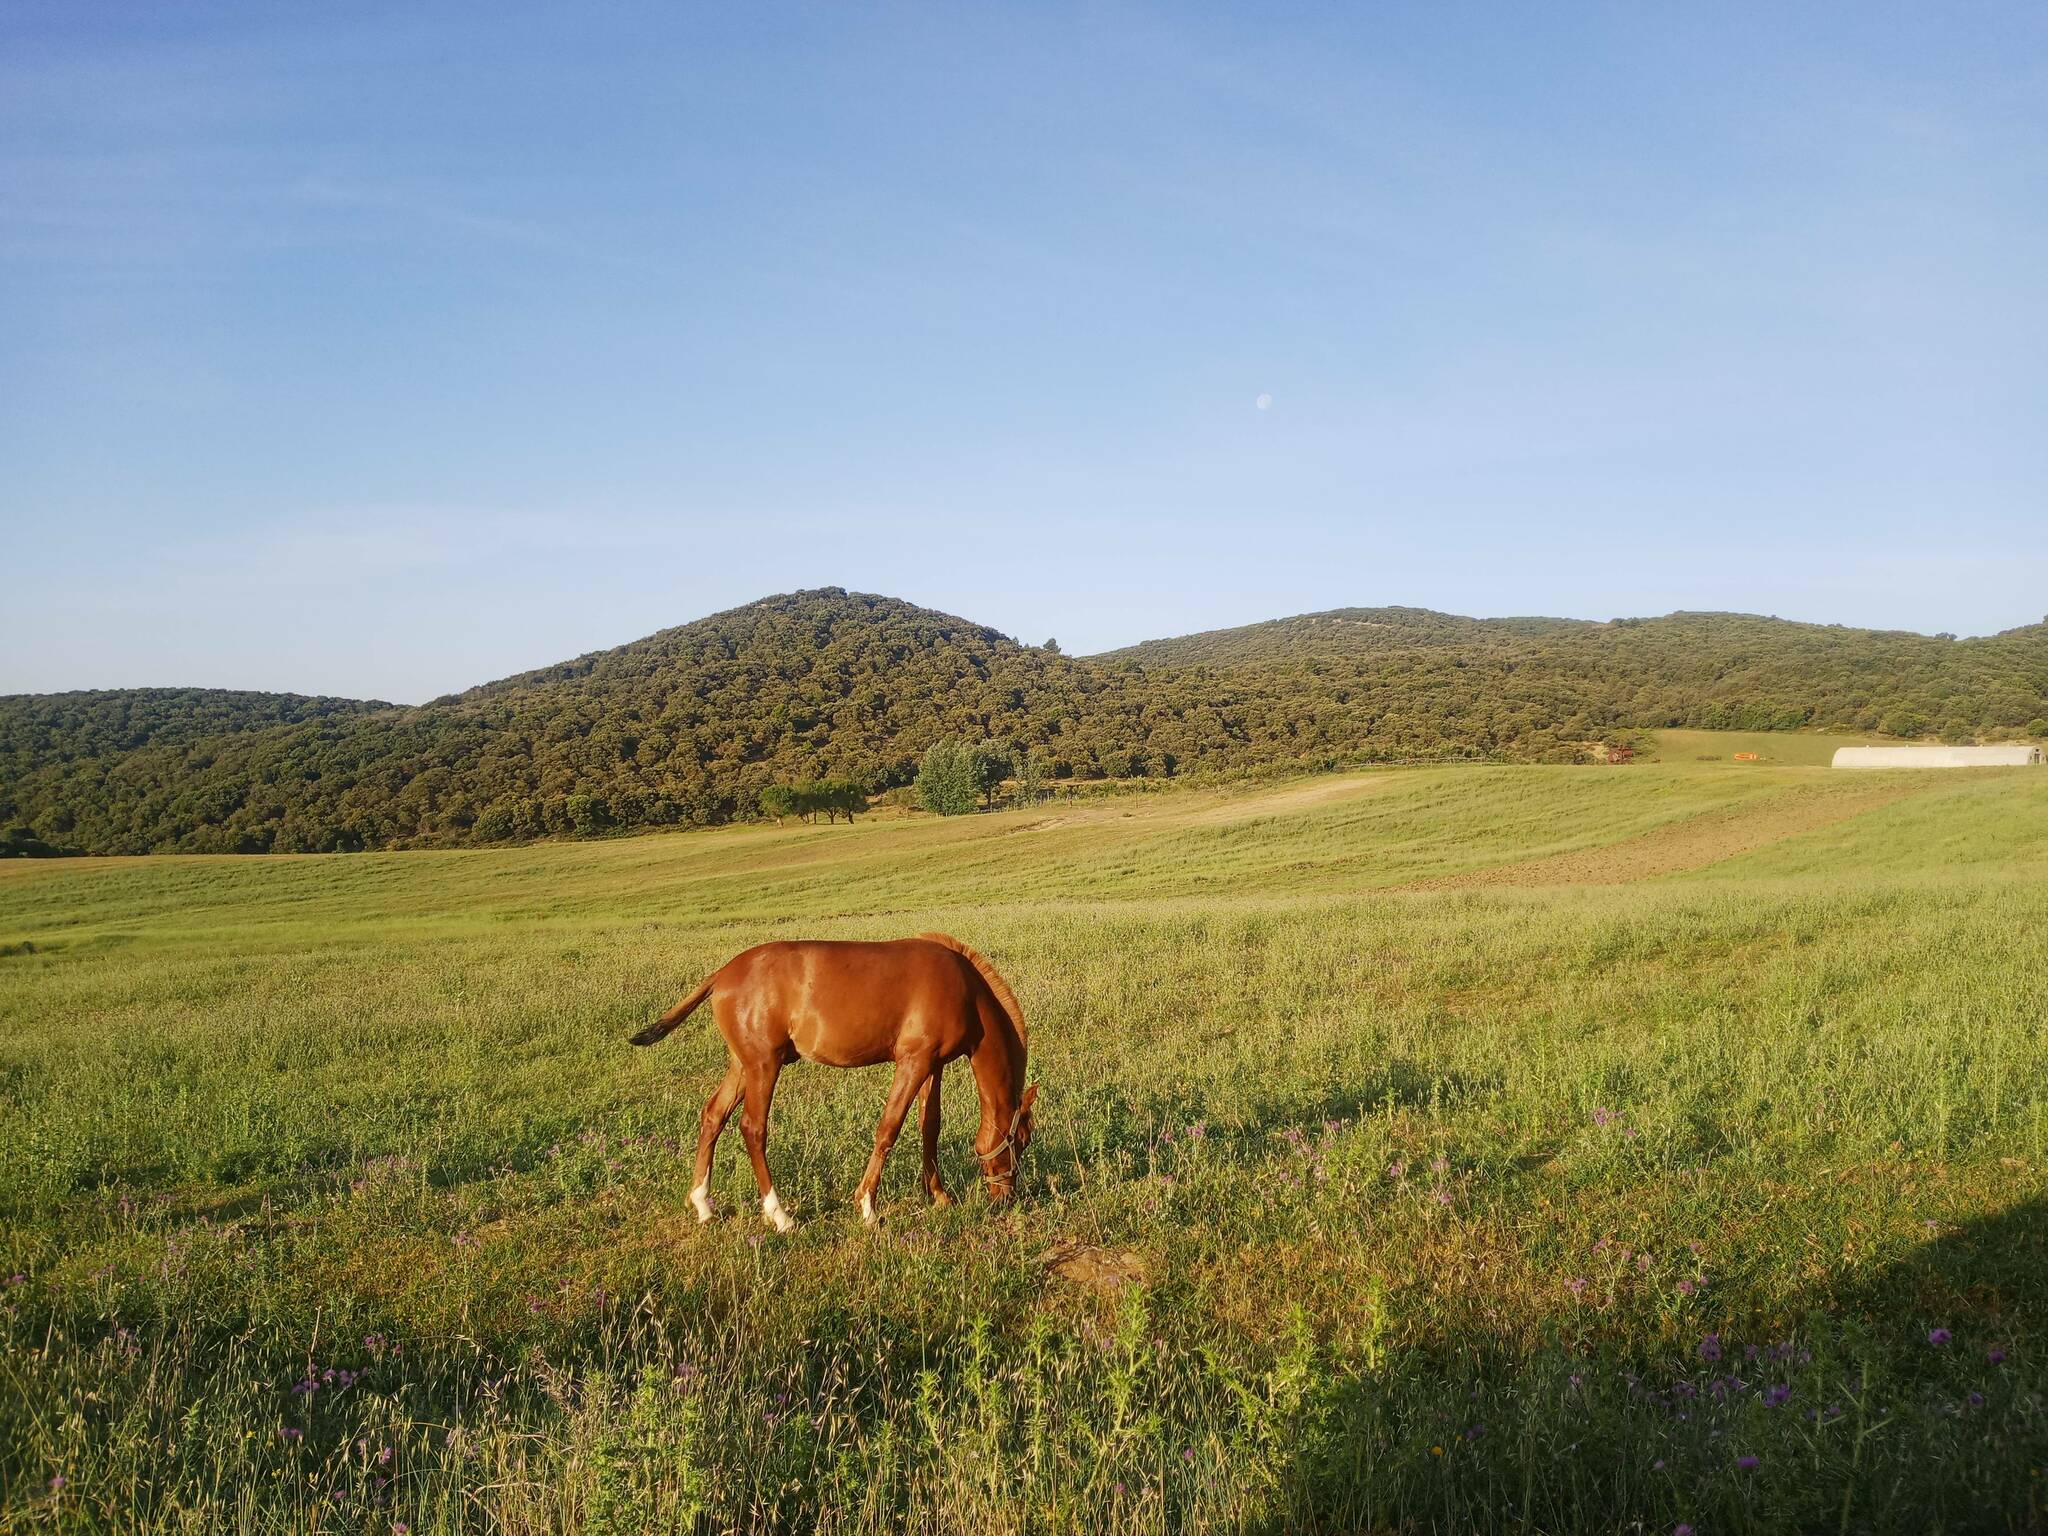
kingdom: Animalia
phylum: Chordata
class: Mammalia
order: Perissodactyla
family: Equidae
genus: Equus
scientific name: Equus caballus
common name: Horse
